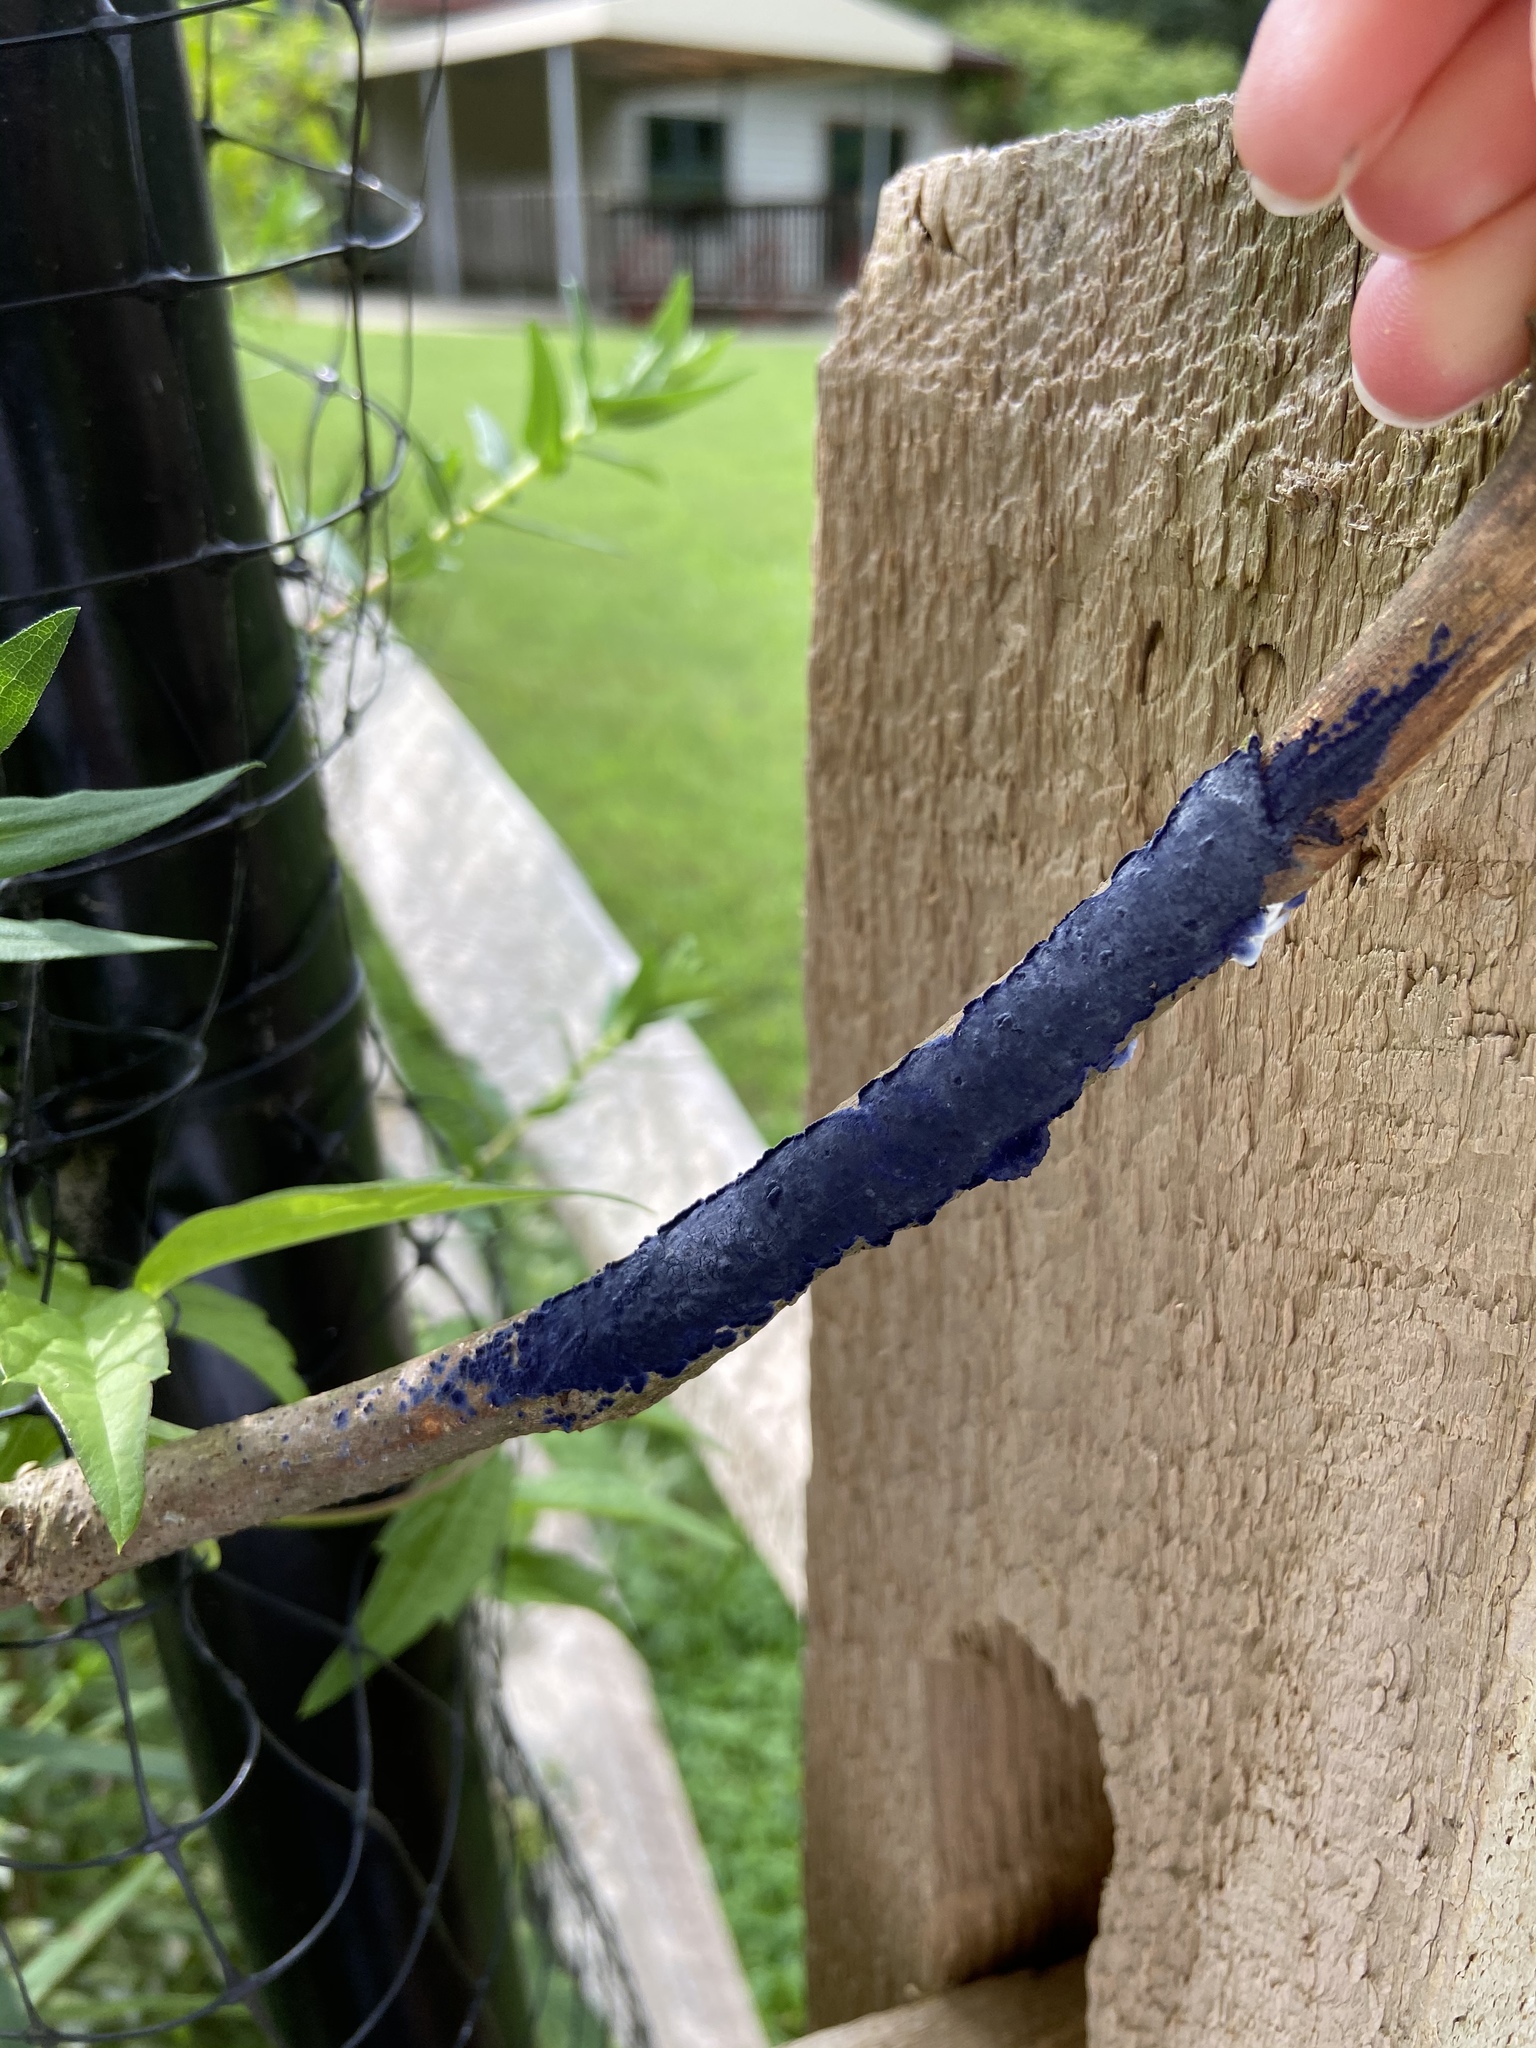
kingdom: Fungi
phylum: Basidiomycota
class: Agaricomycetes
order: Polyporales
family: Phanerochaetaceae
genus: Terana
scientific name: Terana coerulea
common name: Cobalt crust
